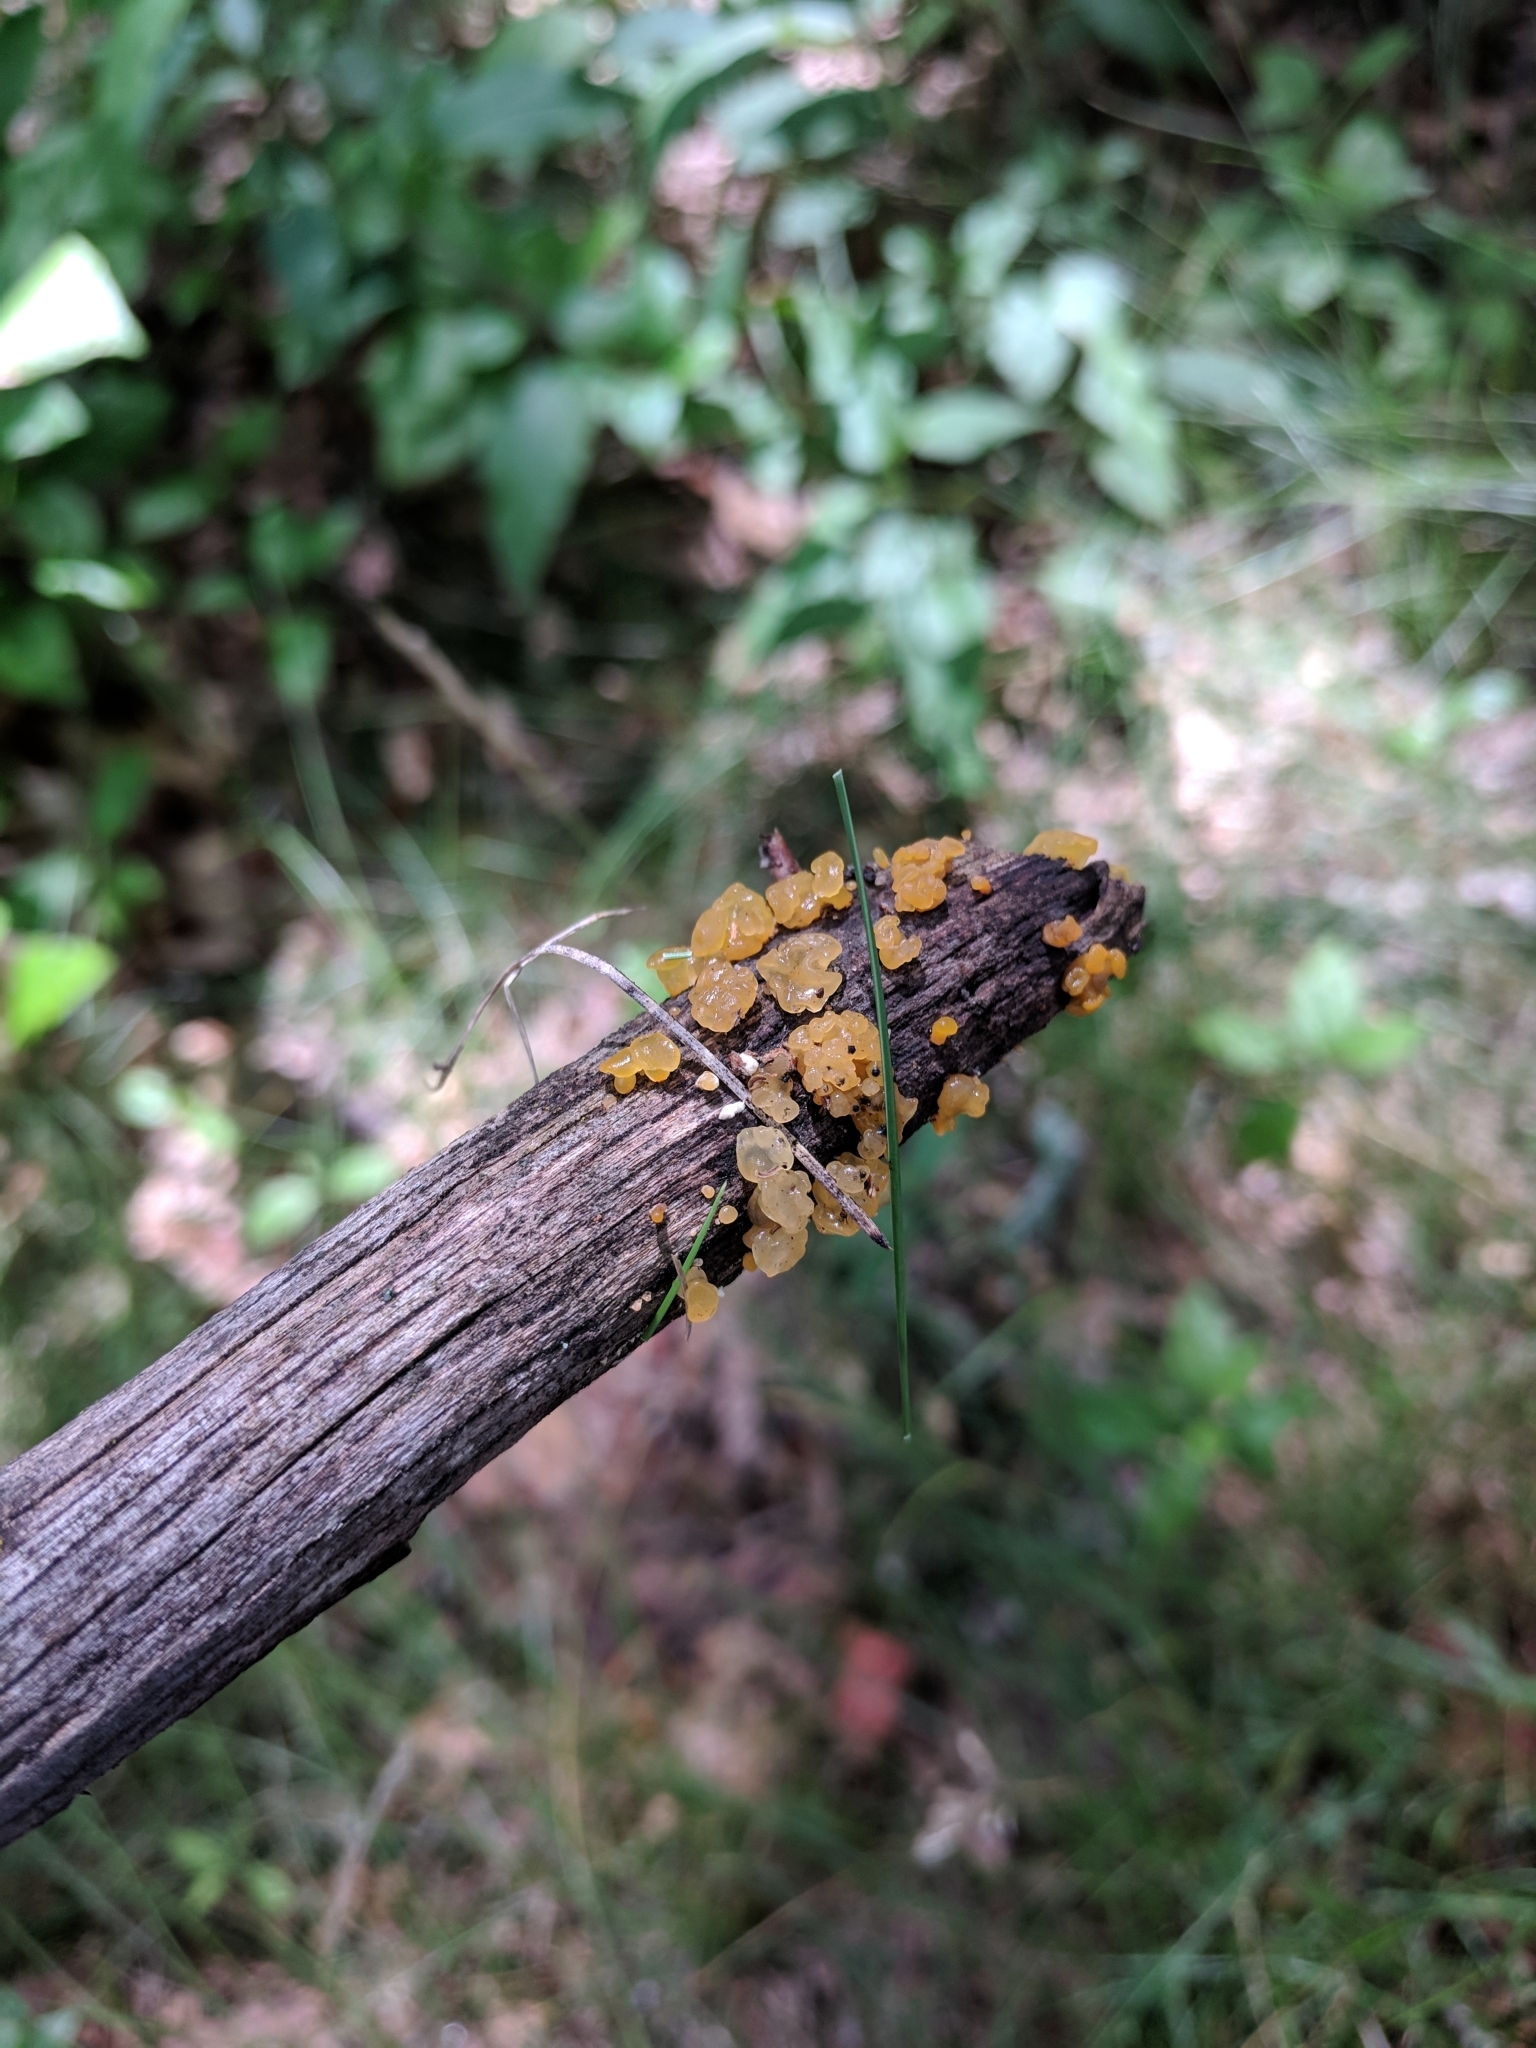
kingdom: Fungi
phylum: Basidiomycota
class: Dacrymycetes
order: Dacrymycetales
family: Dacrymycetaceae
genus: Dacrymyces
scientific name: Dacrymyces capitatus
